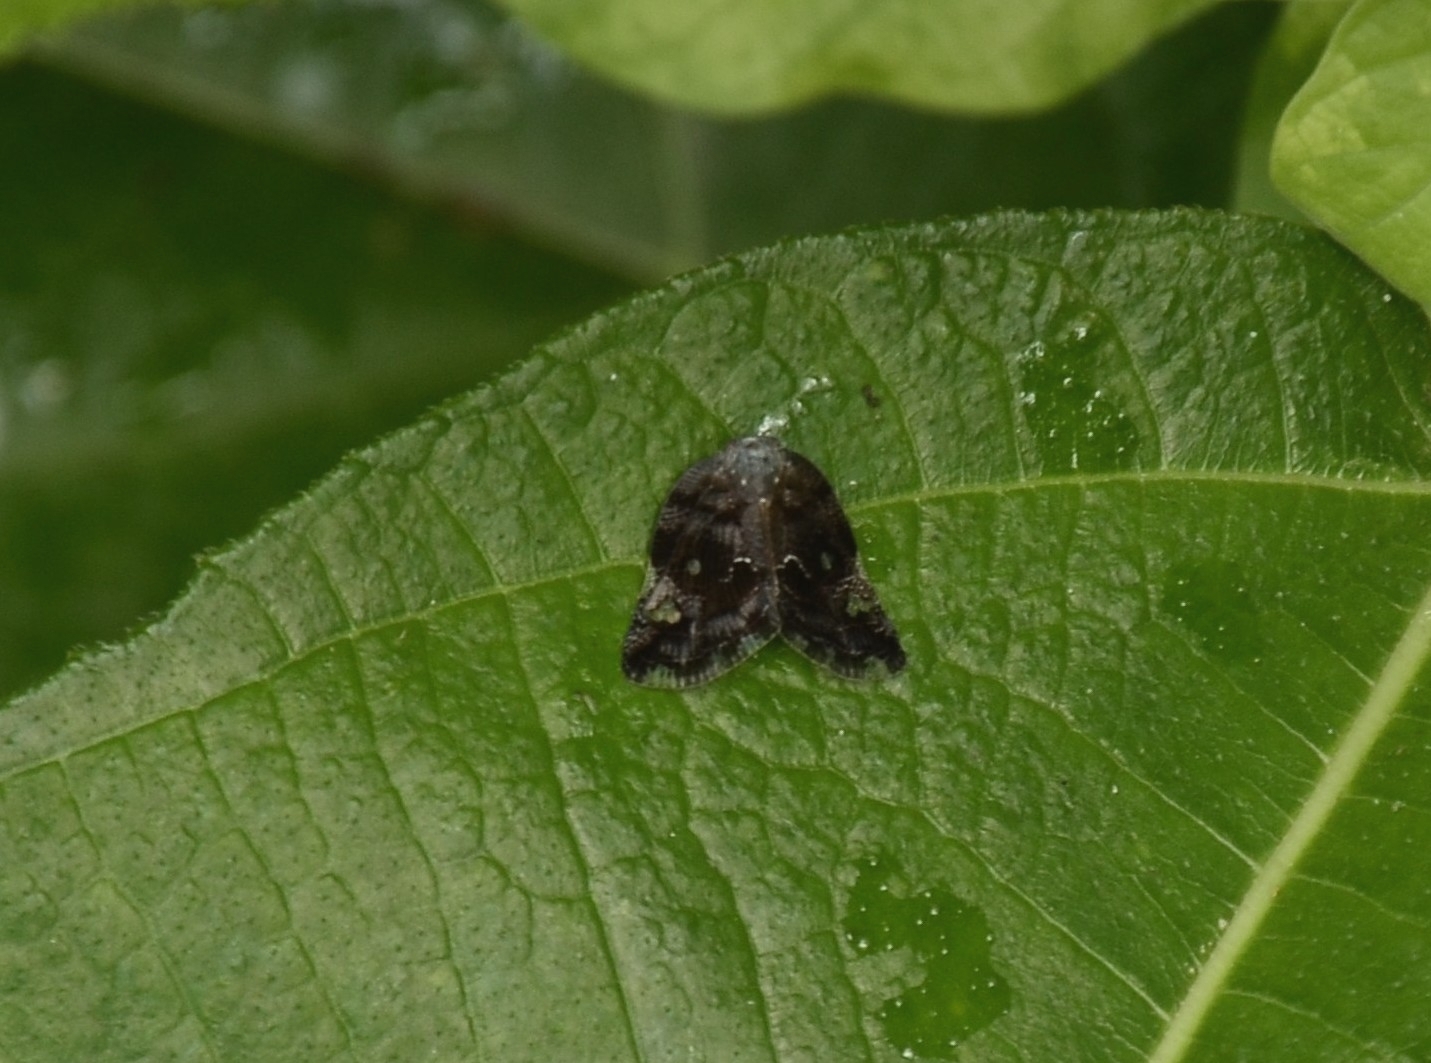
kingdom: Animalia
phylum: Arthropoda
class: Insecta
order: Hemiptera
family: Ricaniidae
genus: Ricania
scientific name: Ricania speculum
